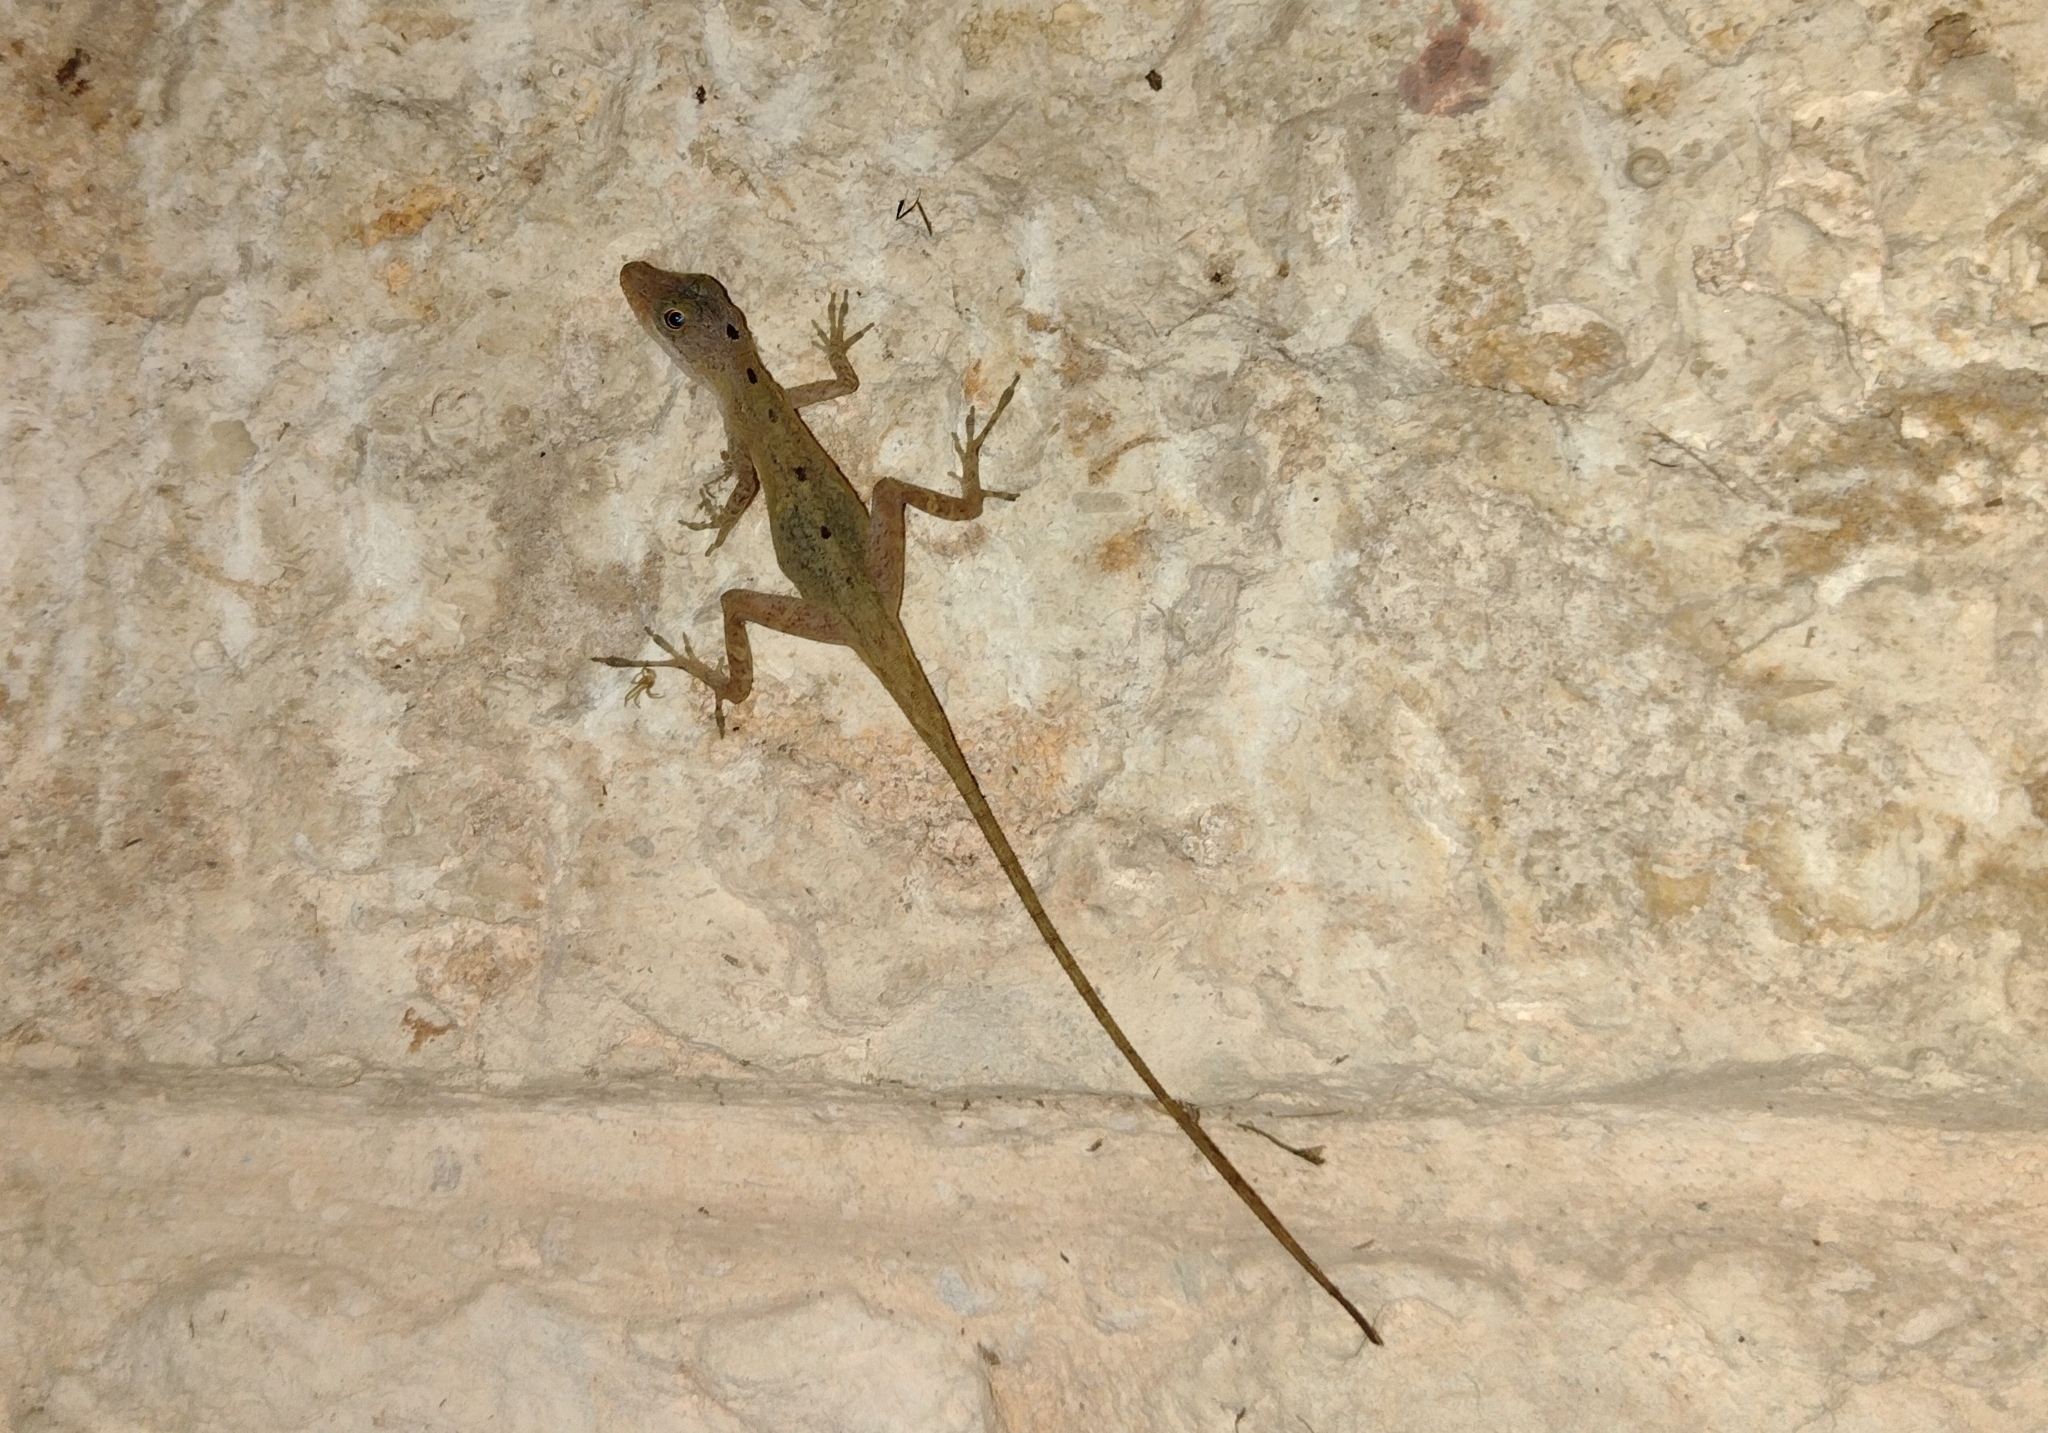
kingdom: Animalia
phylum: Chordata
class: Squamata
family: Dactyloidae
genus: Anolis
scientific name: Anolis rodriguezii
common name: Middle american smooth anole
